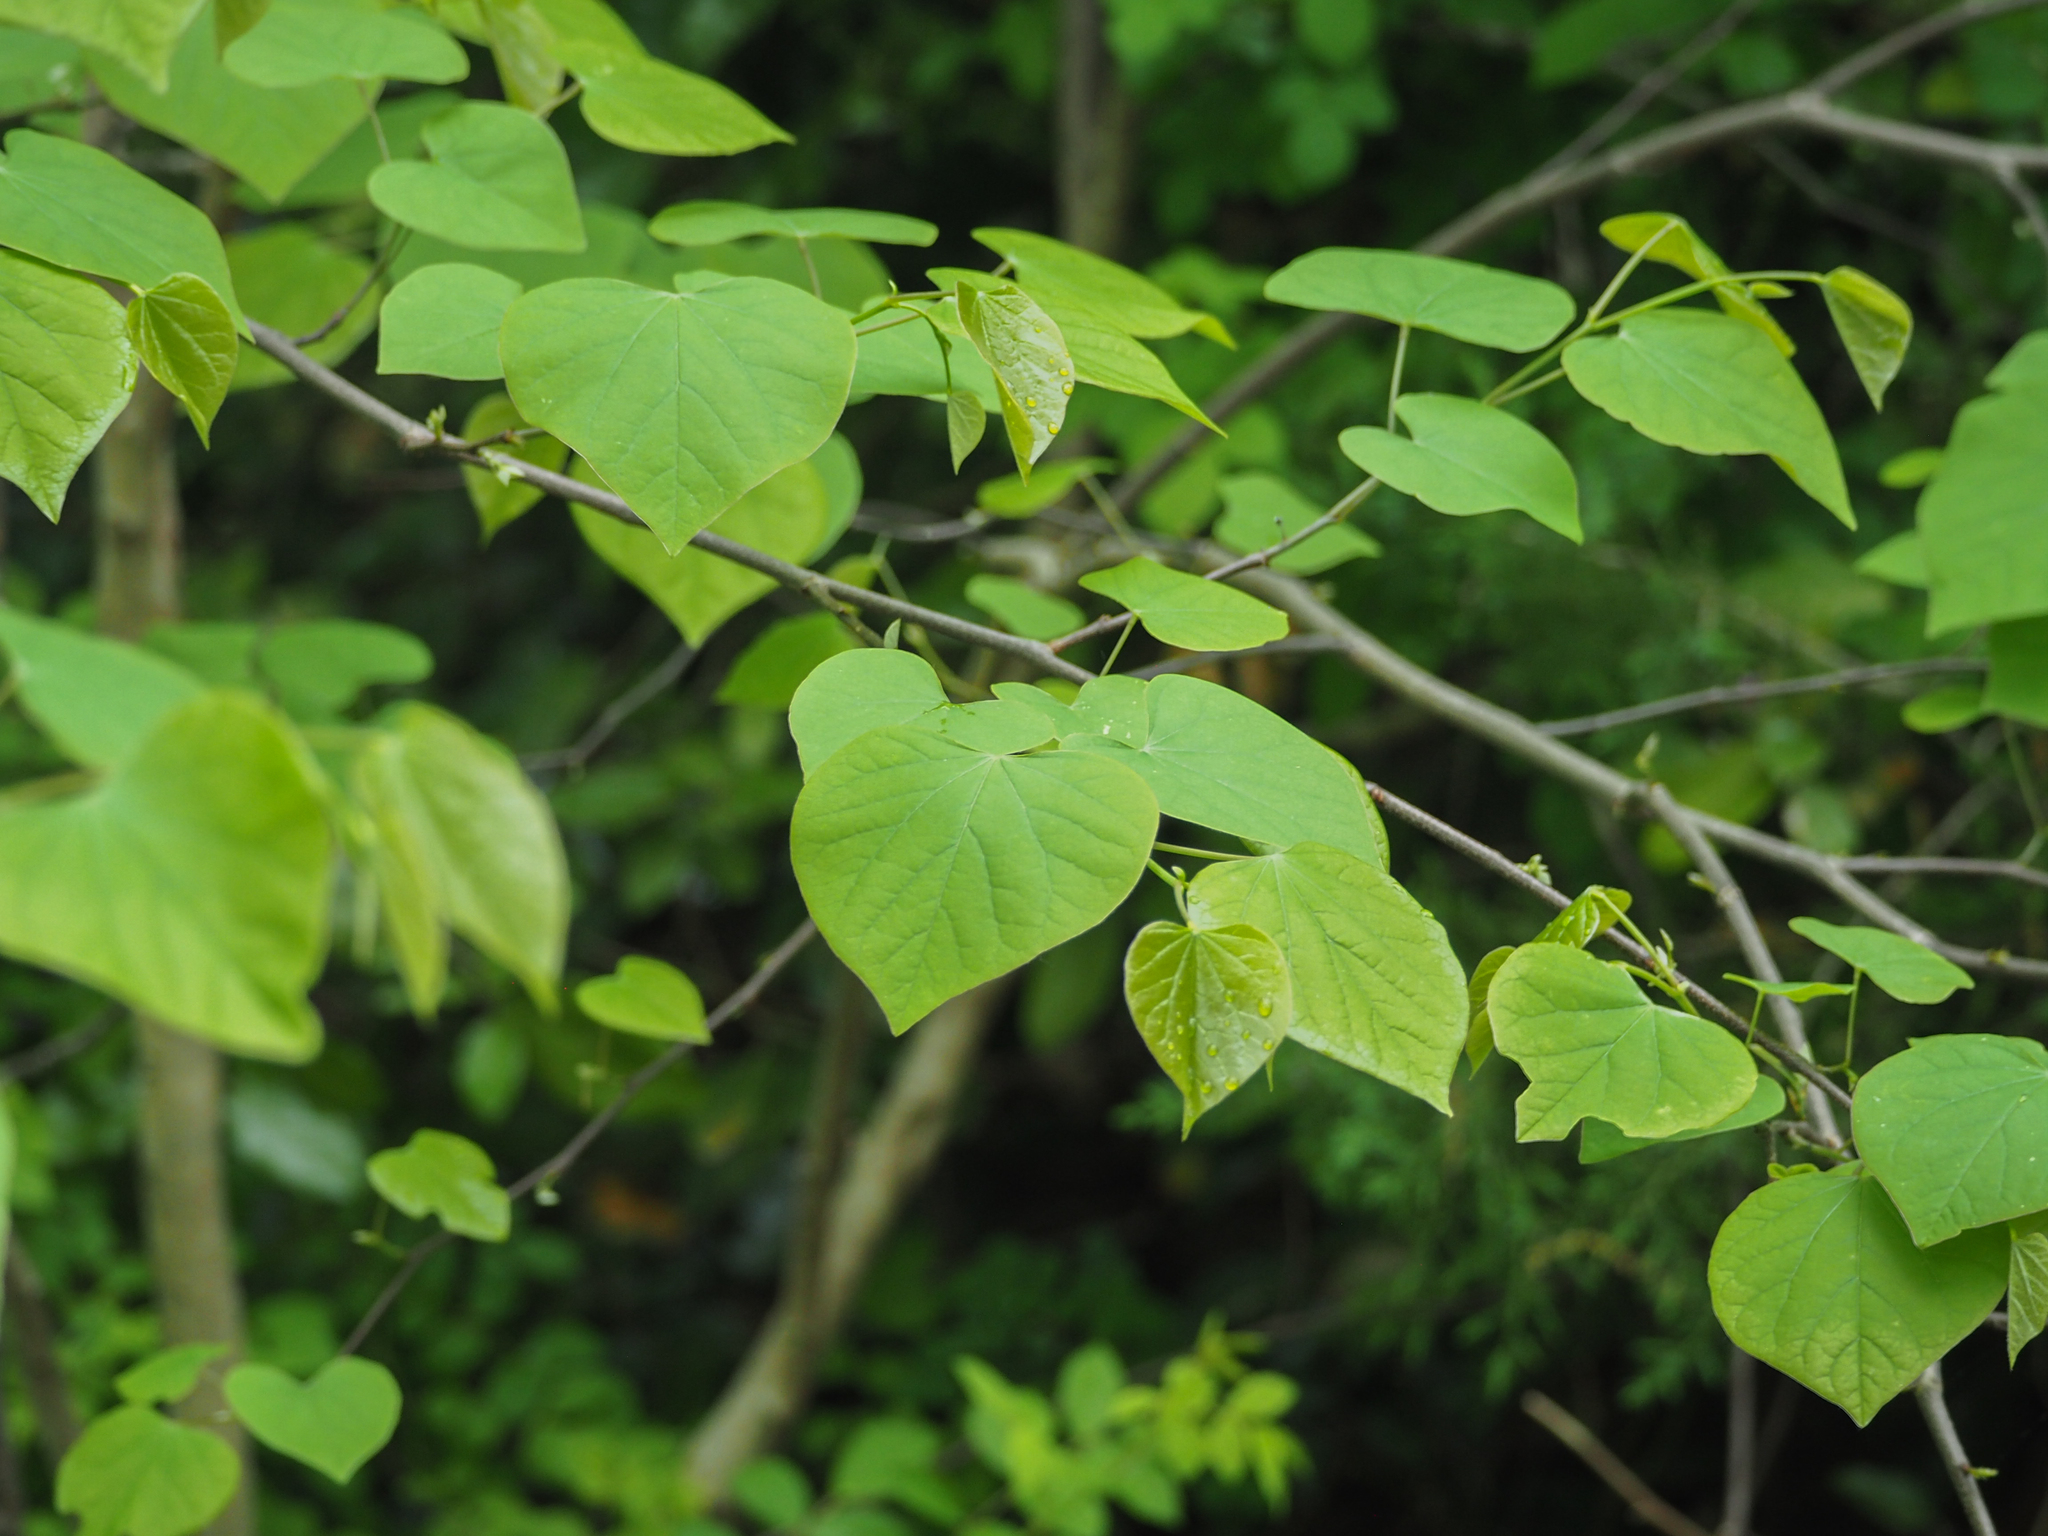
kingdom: Plantae
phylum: Tracheophyta
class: Magnoliopsida
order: Fabales
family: Fabaceae
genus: Cercis
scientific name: Cercis canadensis
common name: Eastern redbud
